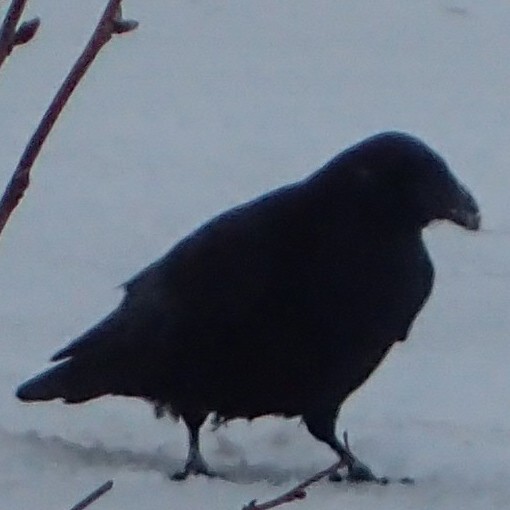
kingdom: Animalia
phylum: Chordata
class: Aves
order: Passeriformes
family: Corvidae
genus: Corvus
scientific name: Corvus corax
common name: Common raven
